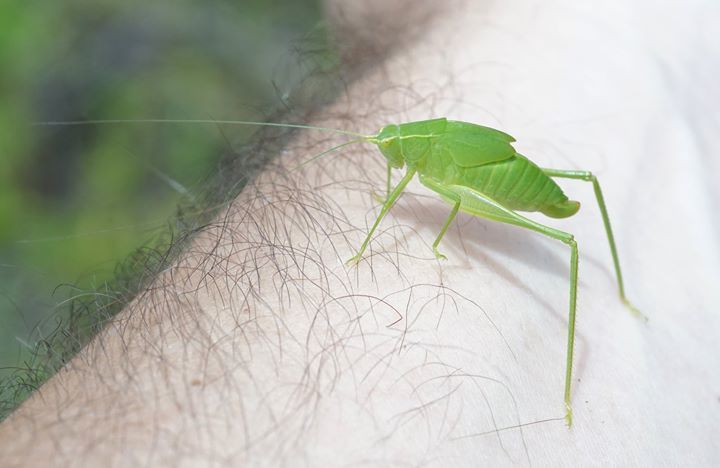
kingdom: Animalia
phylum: Arthropoda
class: Insecta
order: Orthoptera
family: Tettigoniidae
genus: Turpilia
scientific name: Turpilia rostrata
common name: Narrow-beaked katydid
